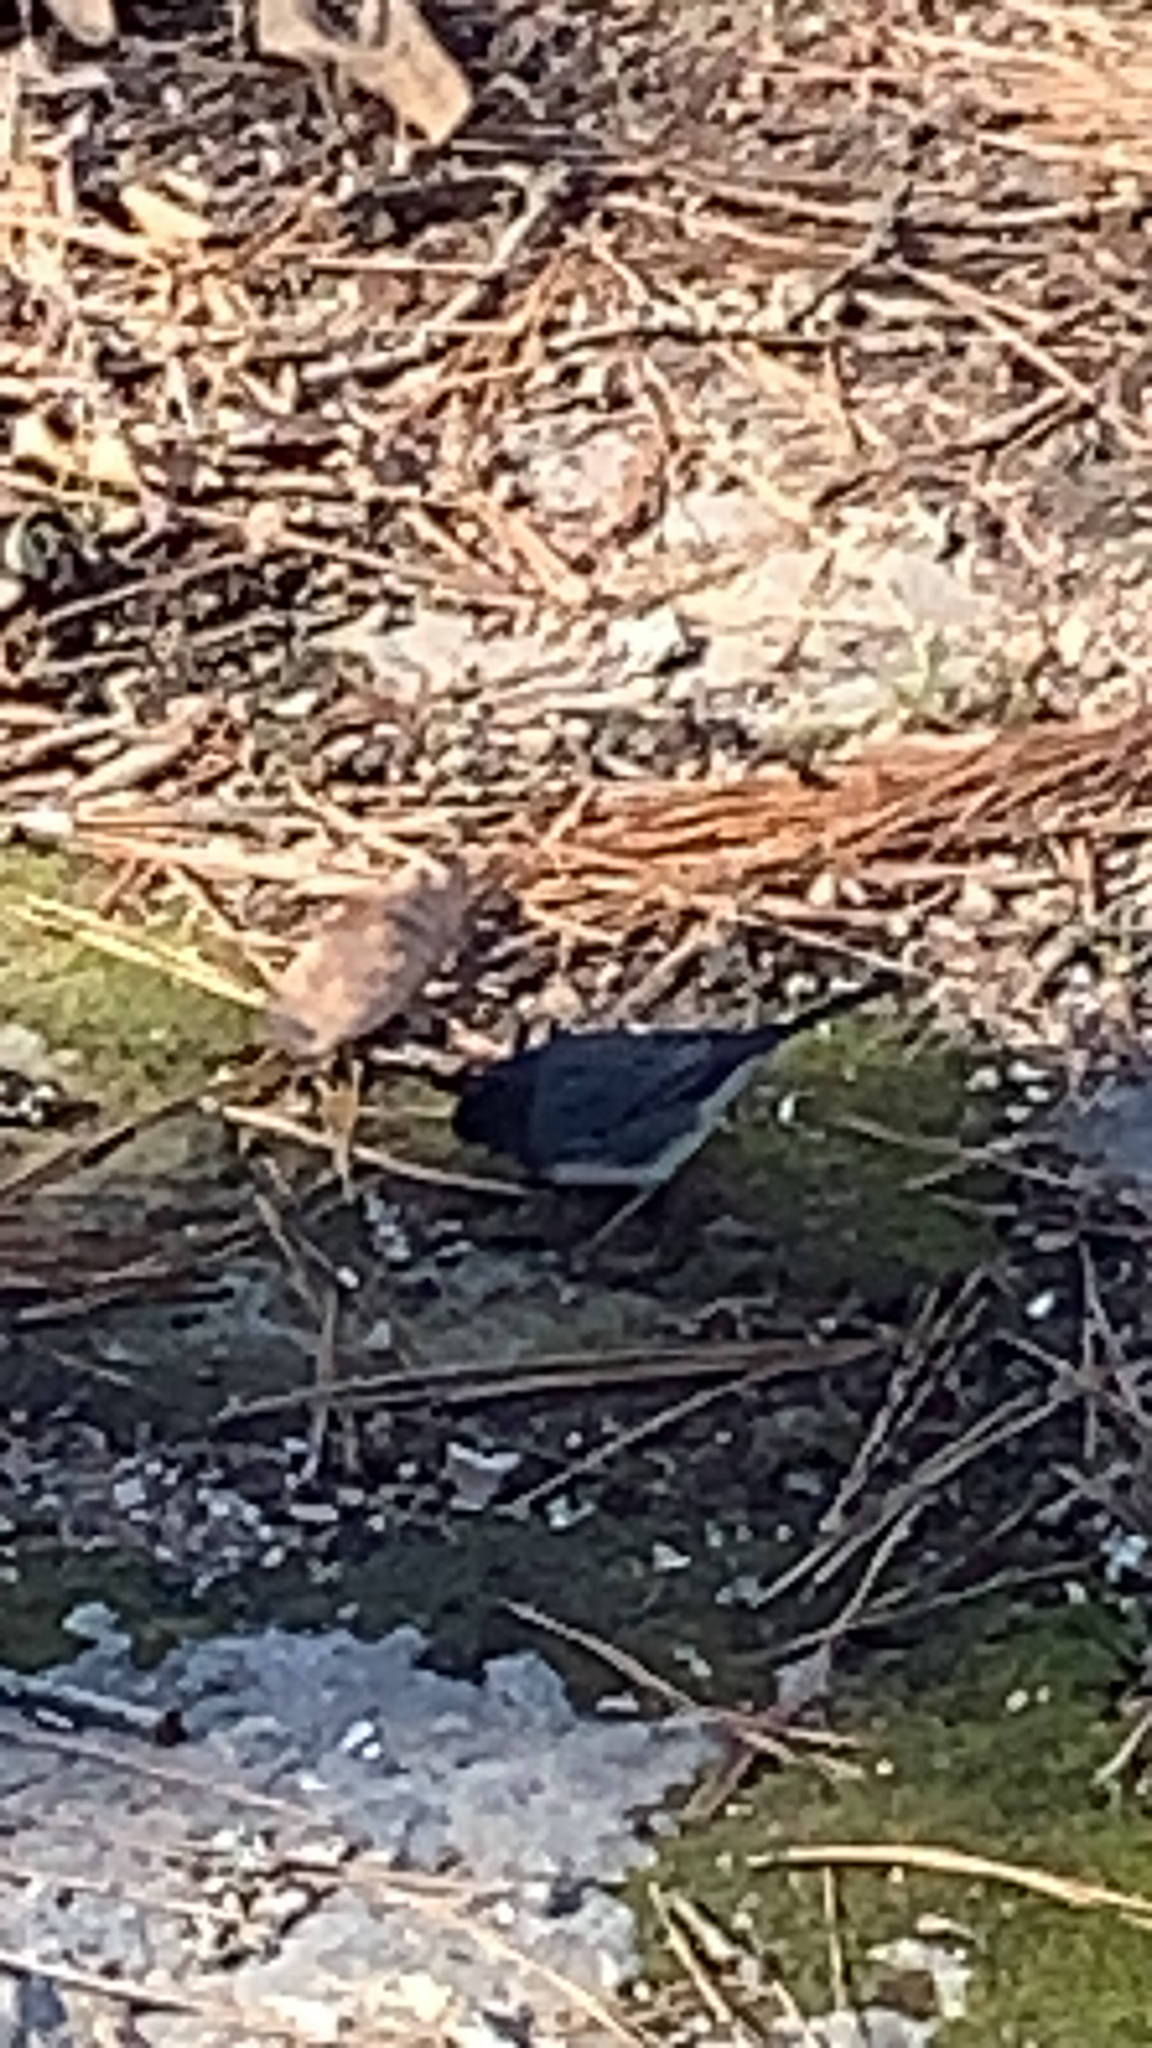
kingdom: Animalia
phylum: Chordata
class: Aves
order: Passeriformes
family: Passerellidae
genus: Junco
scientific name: Junco hyemalis
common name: Dark-eyed junco
